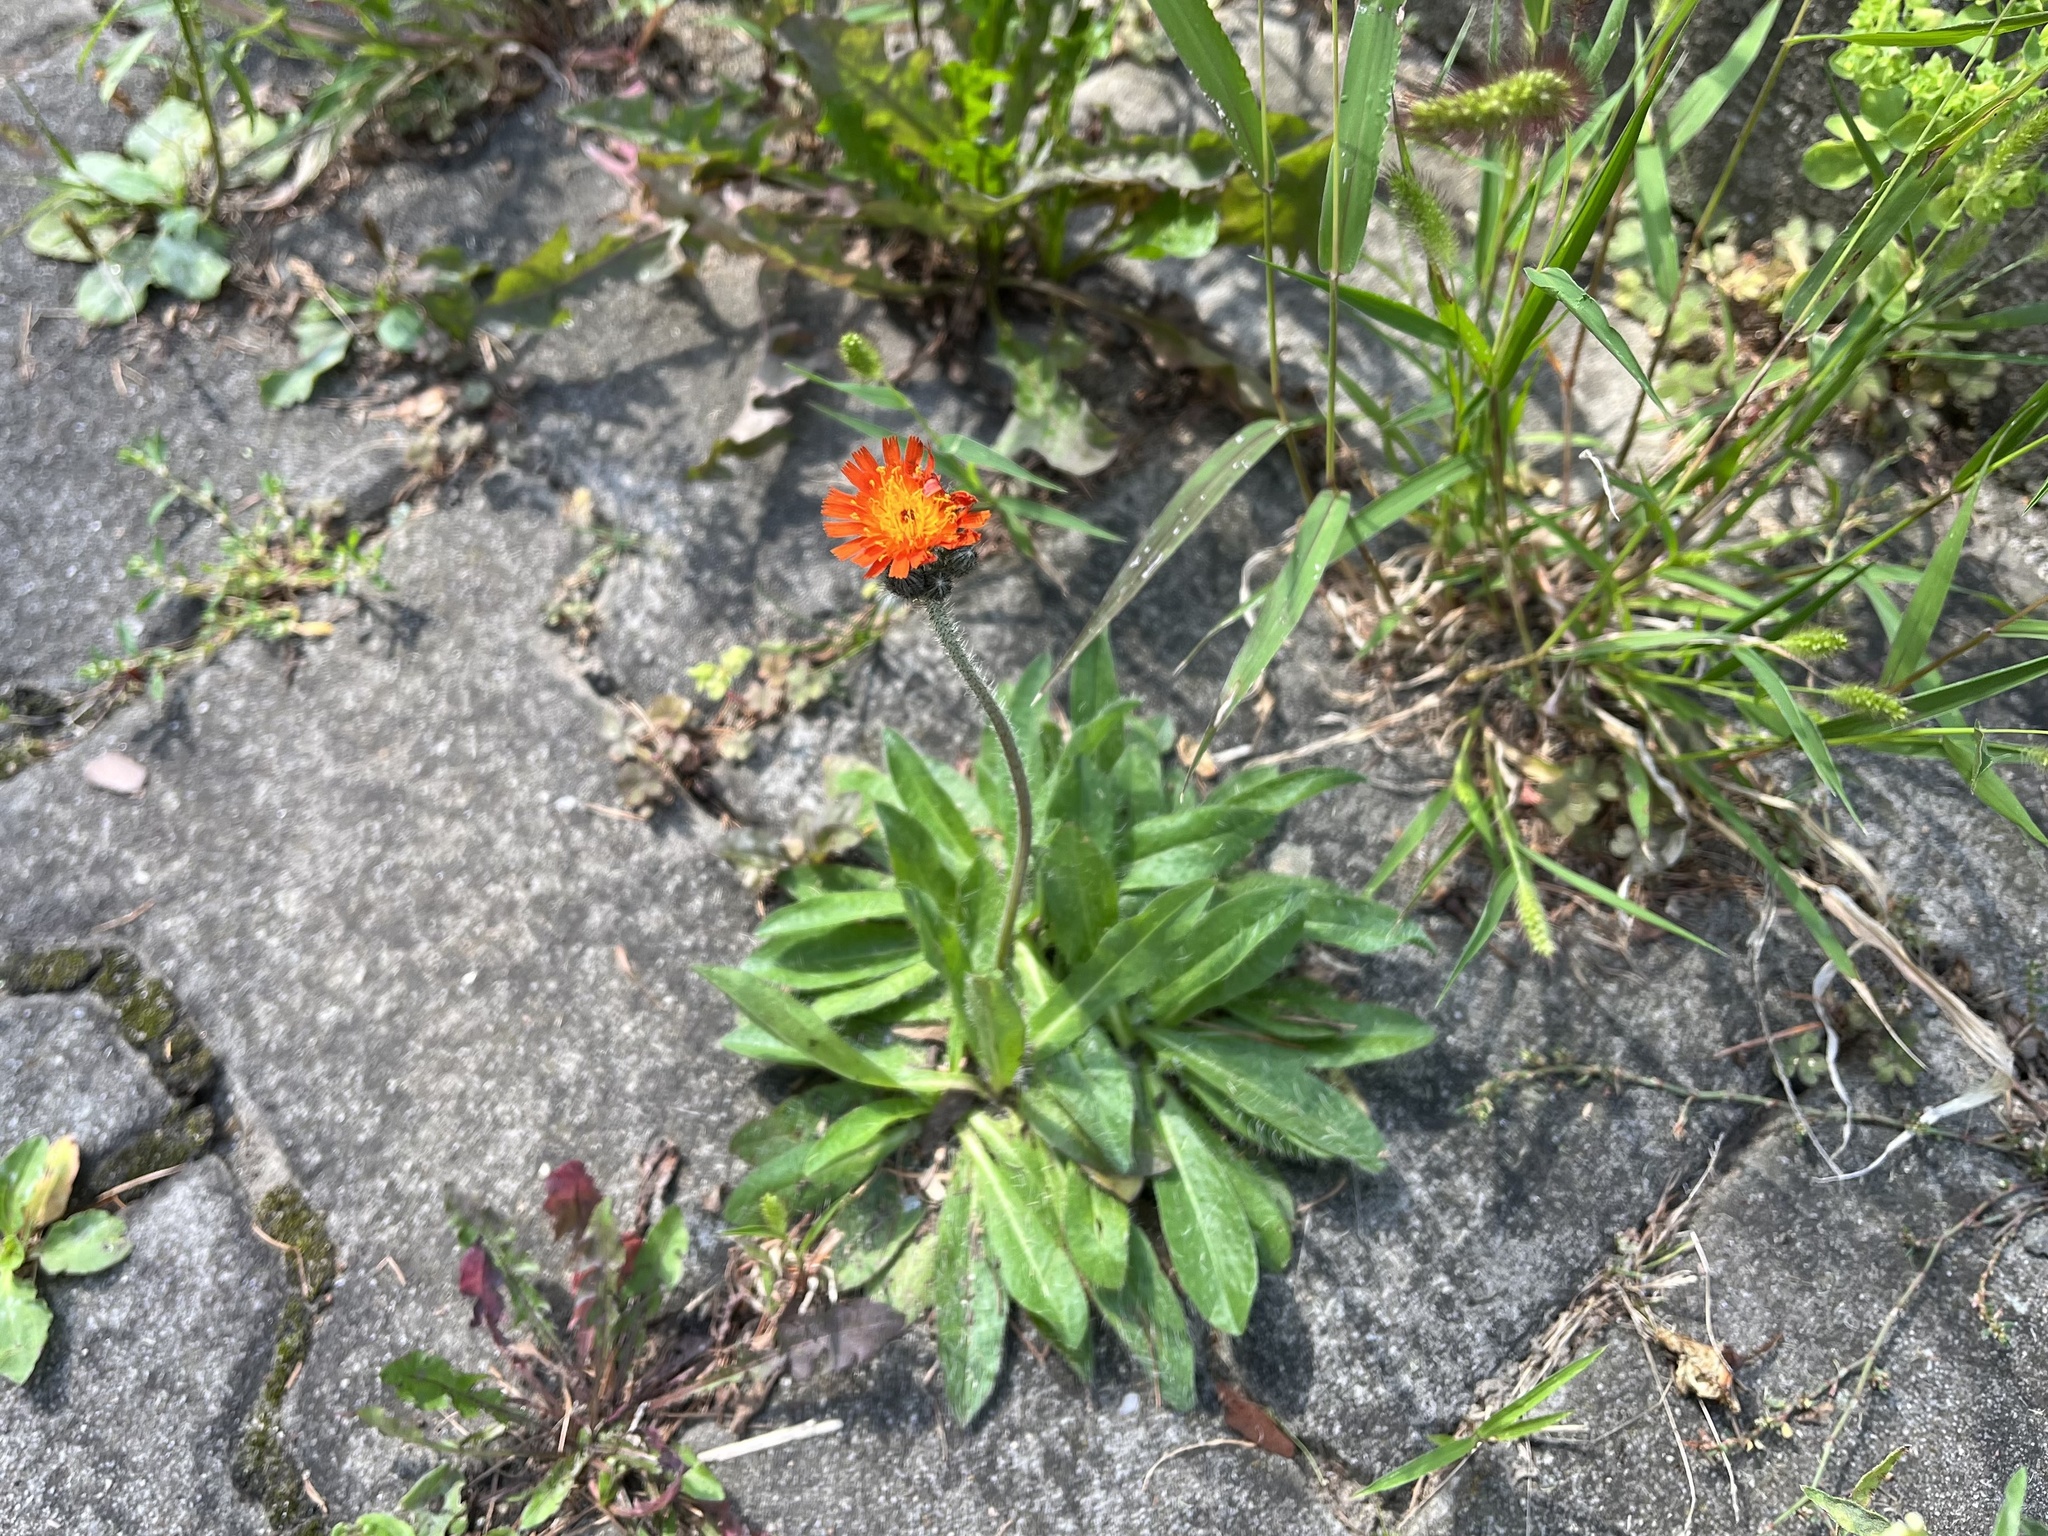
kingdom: Plantae
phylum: Tracheophyta
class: Magnoliopsida
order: Asterales
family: Asteraceae
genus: Pilosella
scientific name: Pilosella aurantiaca
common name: Fox-and-cubs
